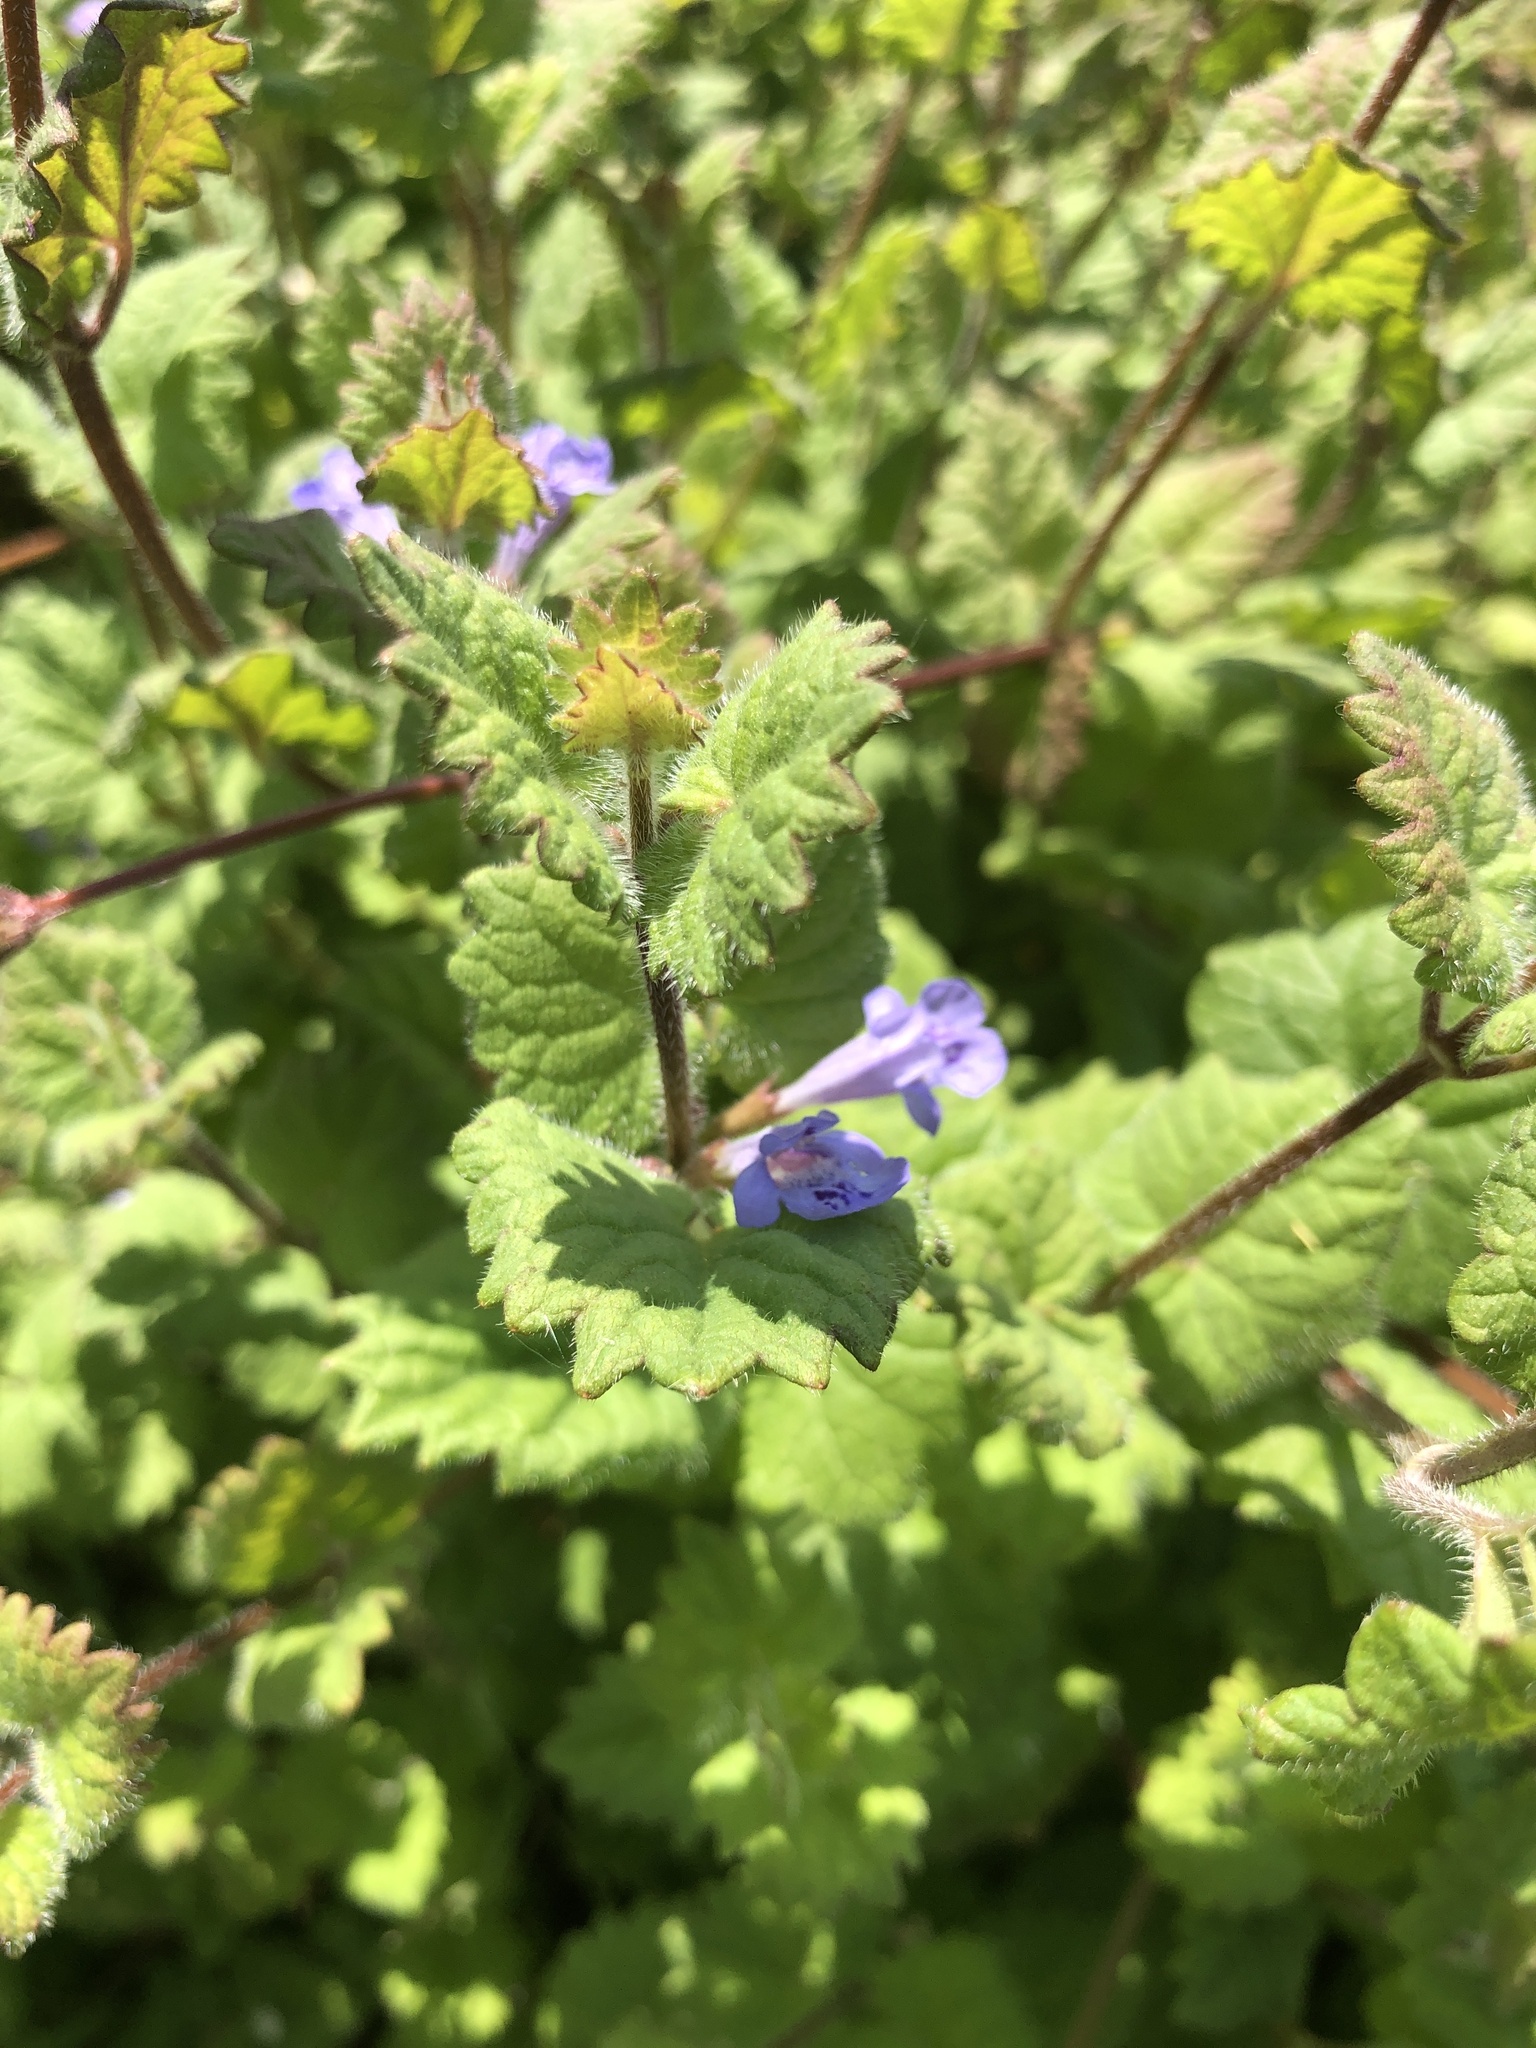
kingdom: Plantae
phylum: Tracheophyta
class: Magnoliopsida
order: Lamiales
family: Lamiaceae
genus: Glechoma
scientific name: Glechoma hederacea
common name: Ground ivy
